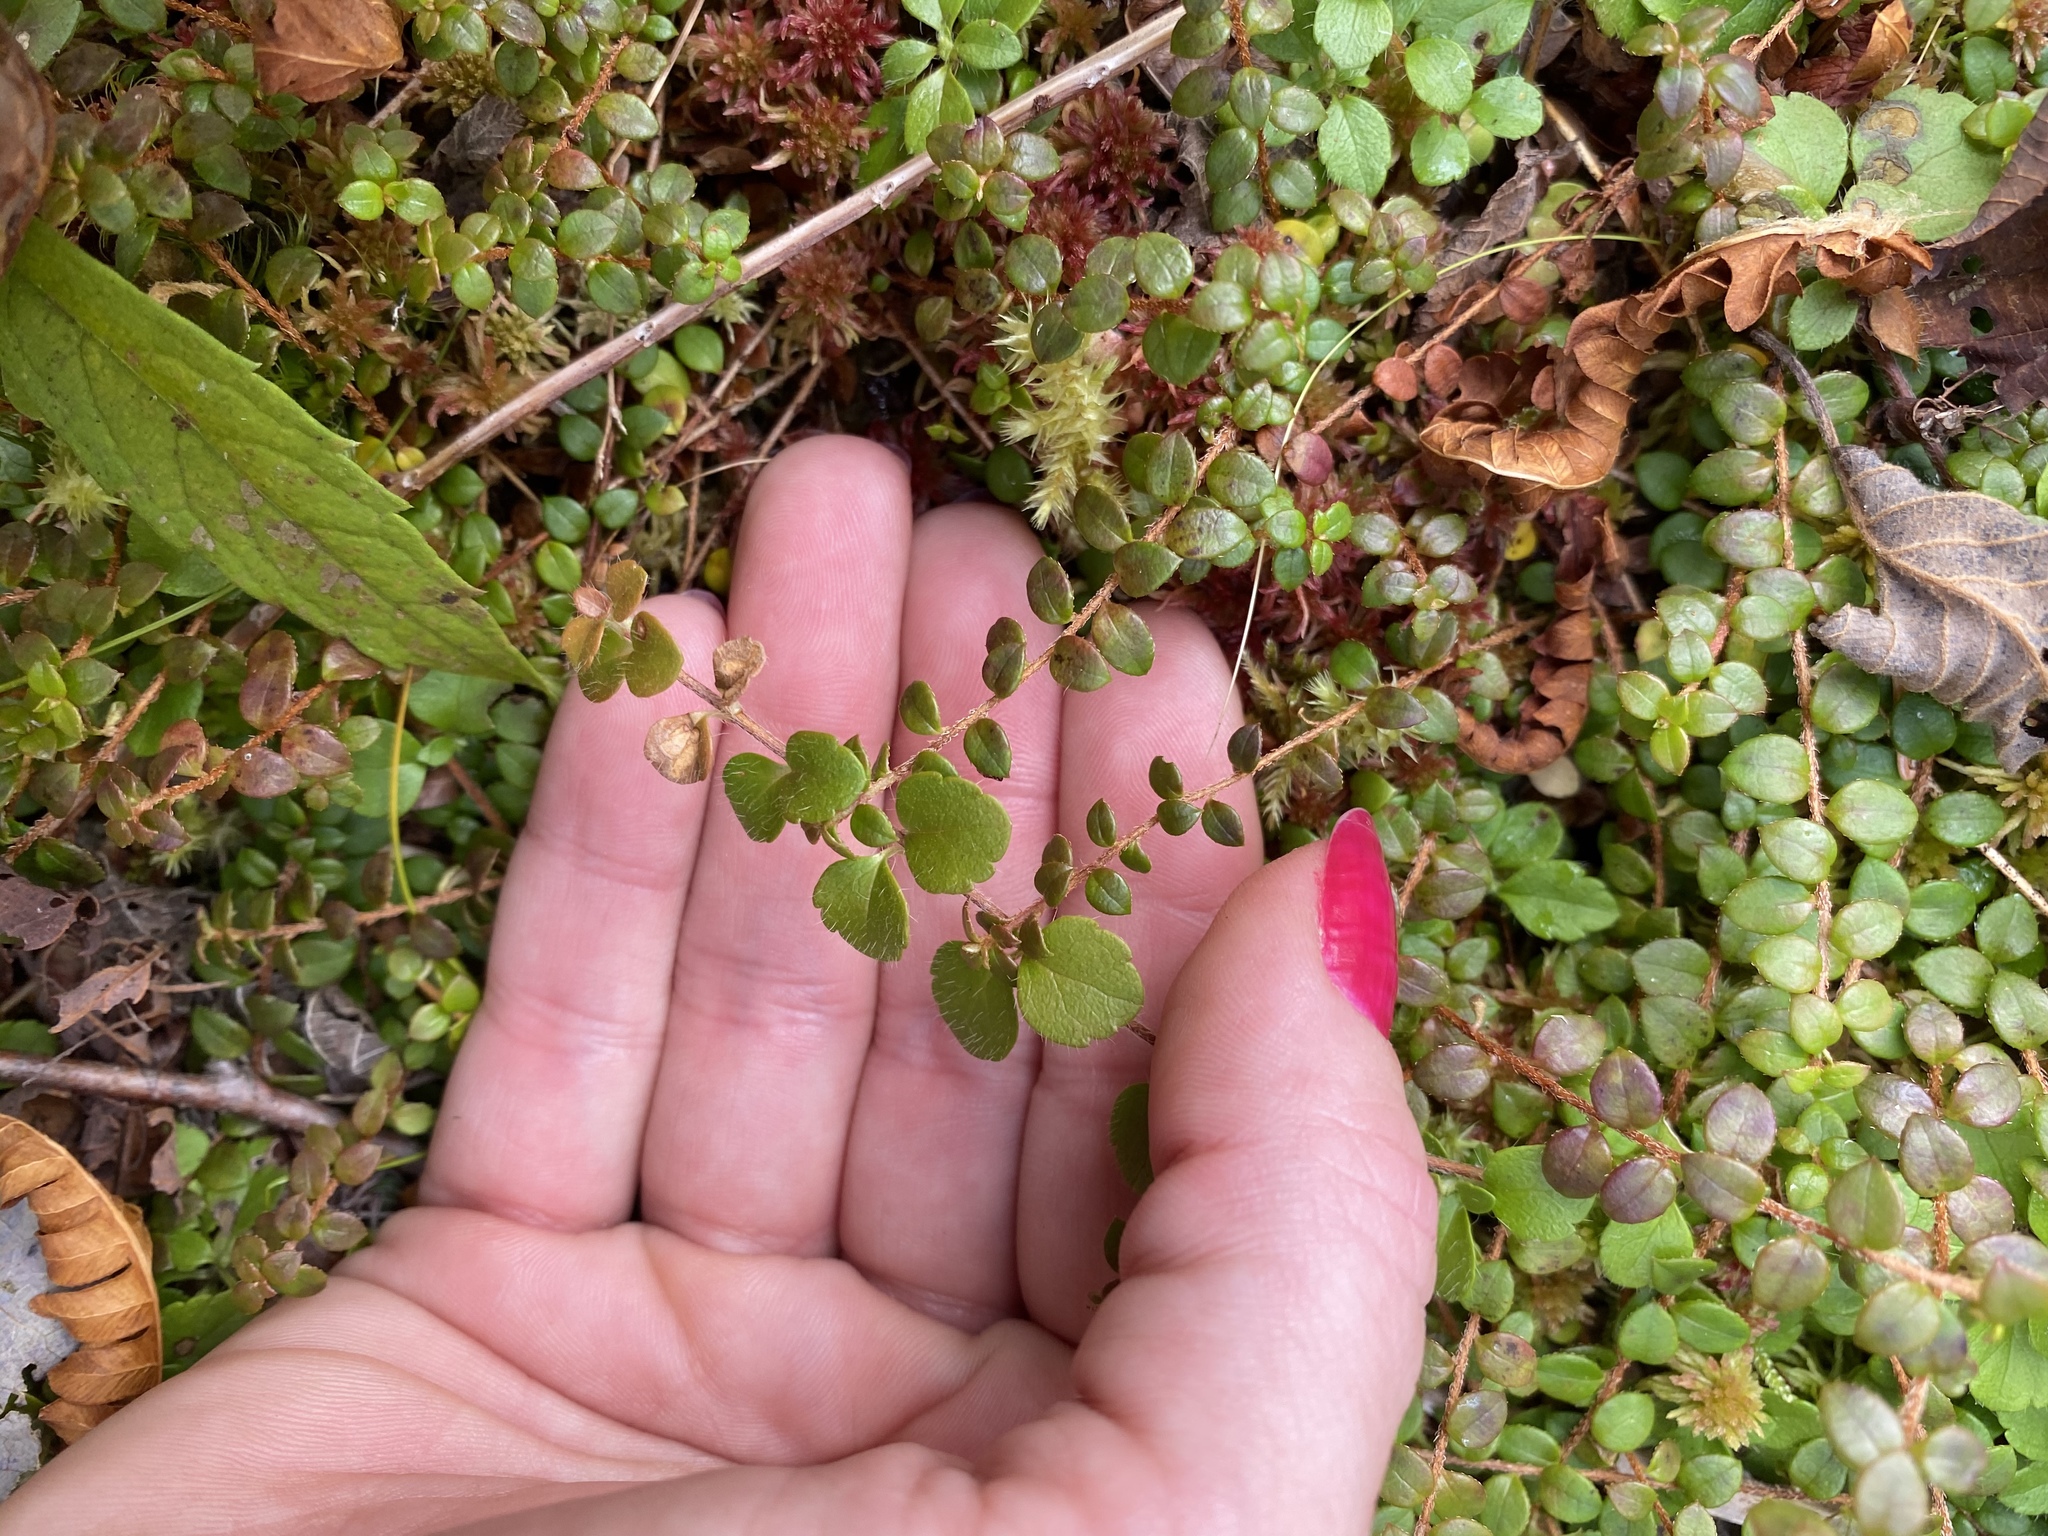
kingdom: Plantae
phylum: Tracheophyta
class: Magnoliopsida
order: Ericales
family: Ericaceae
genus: Gaultheria
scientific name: Gaultheria hispidula
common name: Cancer wintergreen
